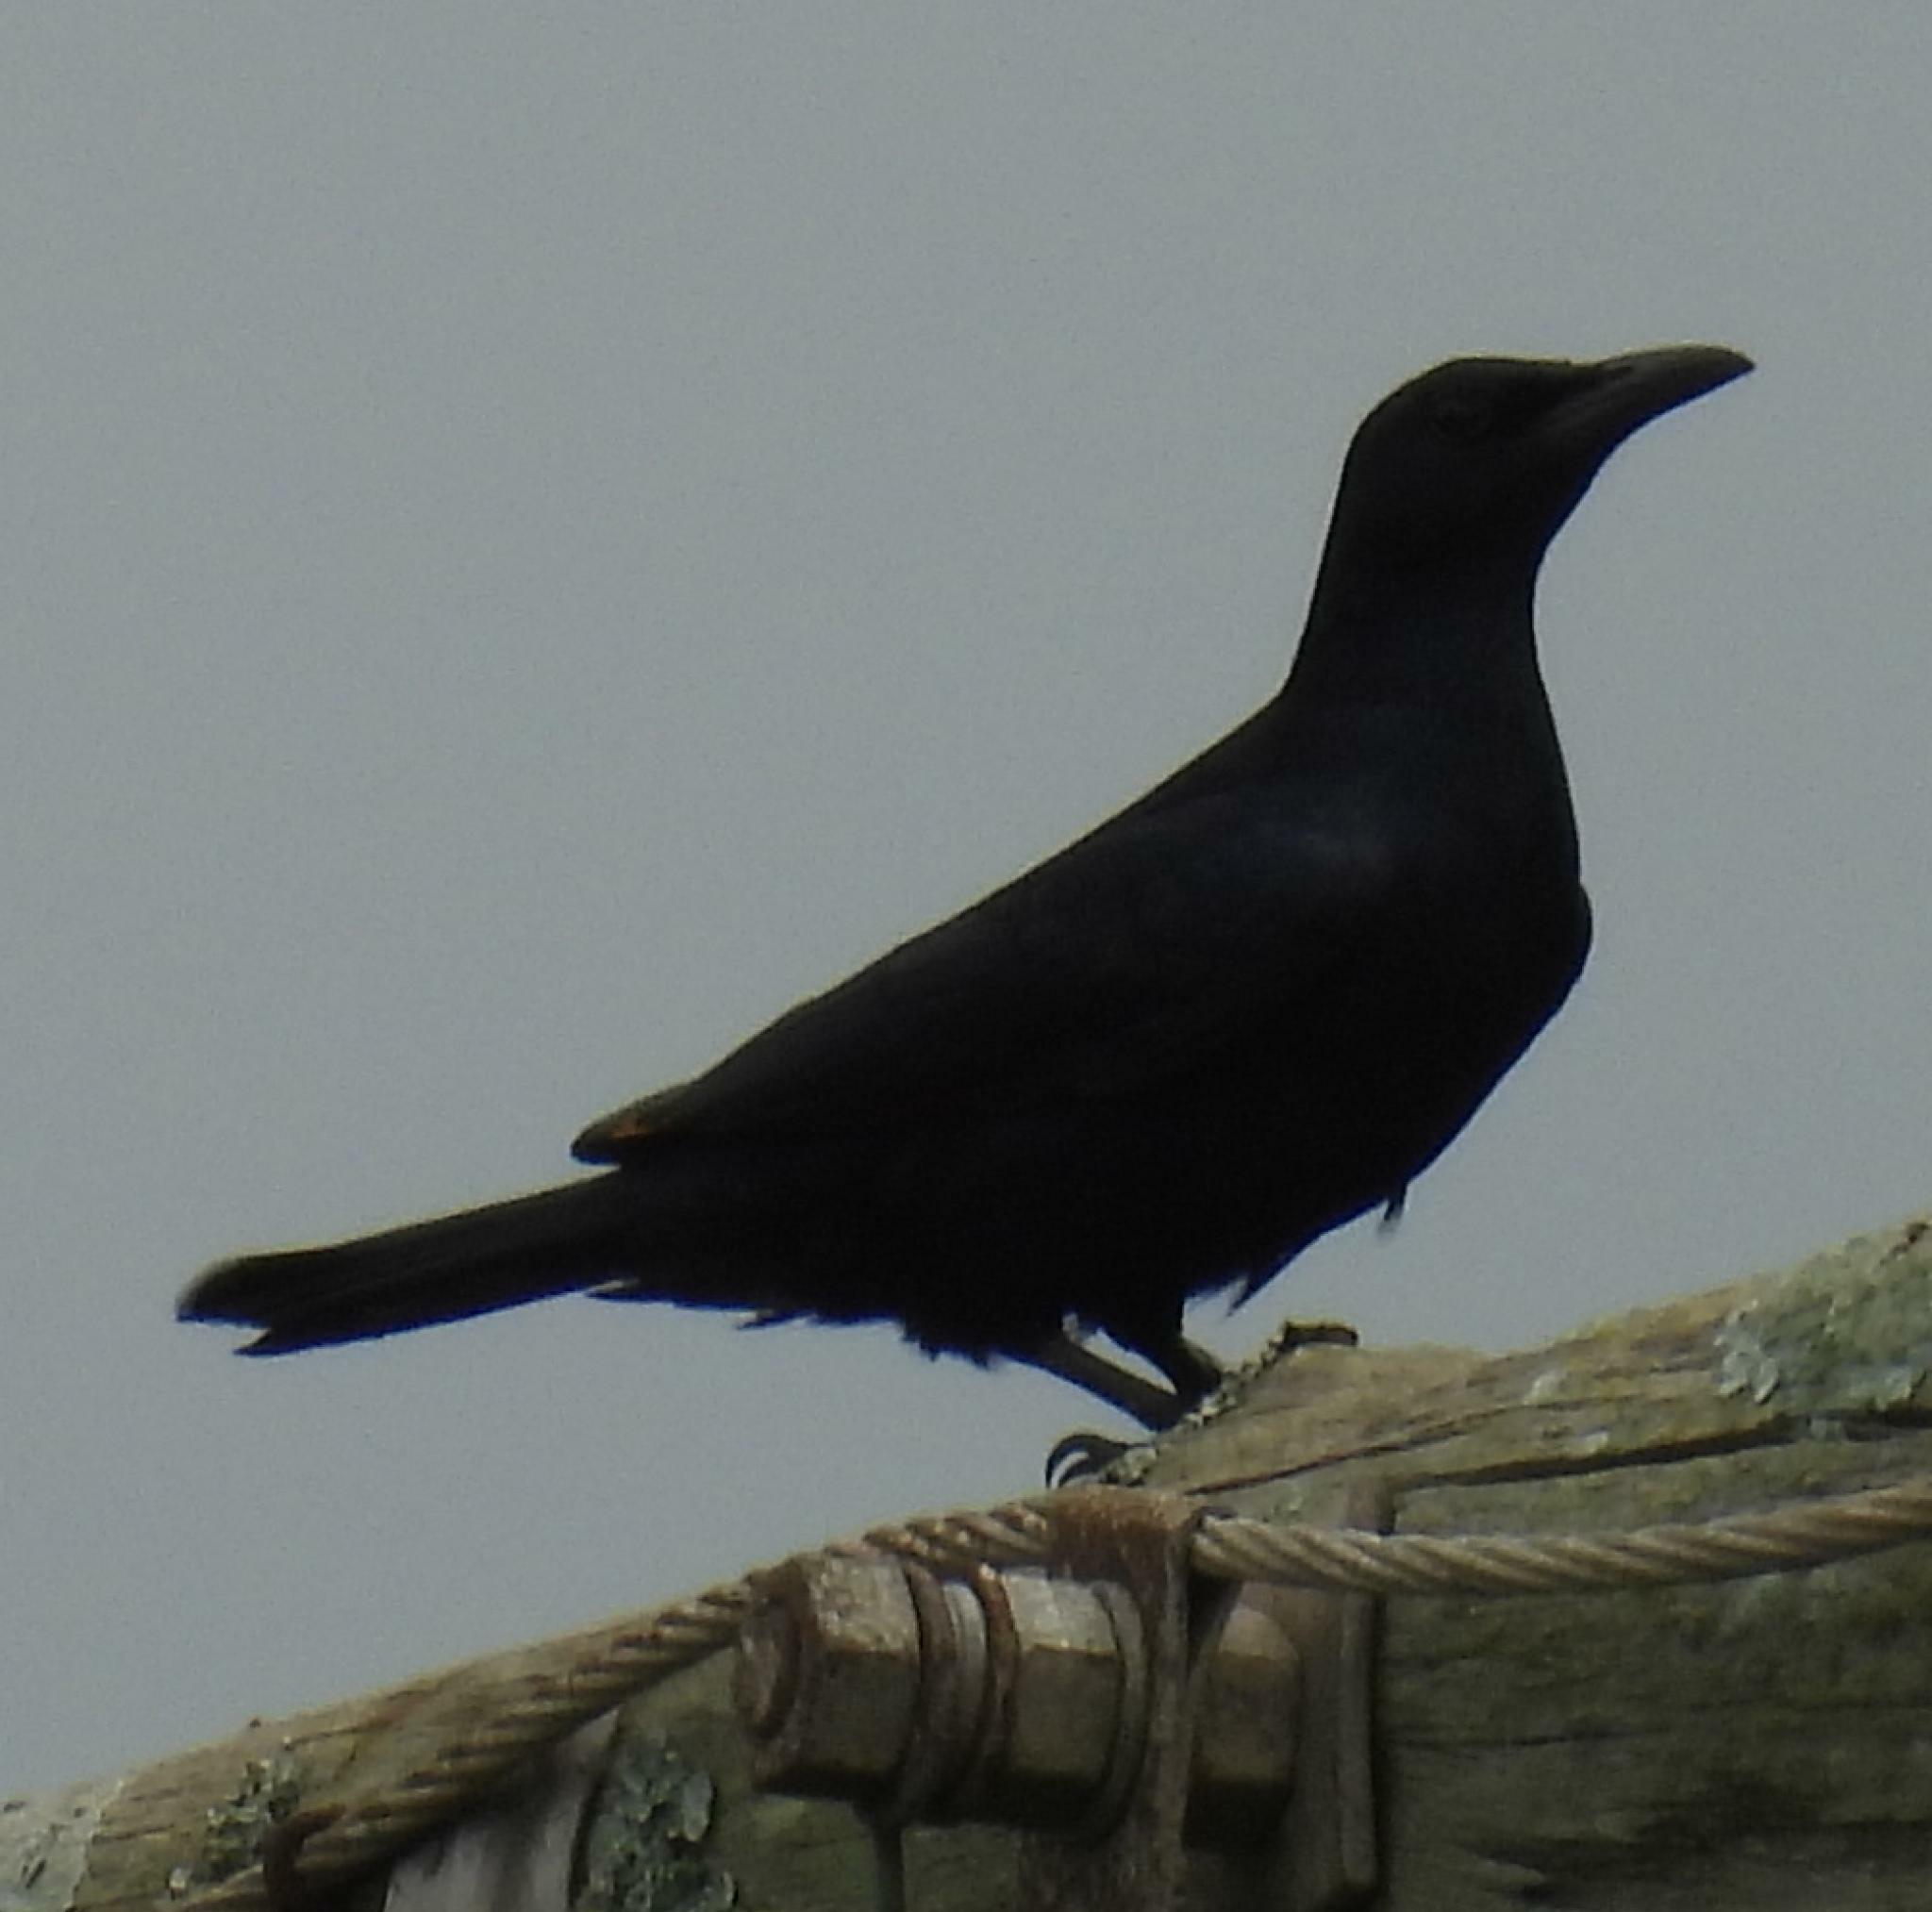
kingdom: Animalia
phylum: Chordata
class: Aves
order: Passeriformes
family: Sturnidae
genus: Onychognathus
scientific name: Onychognathus morio
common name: Red-winged starling
